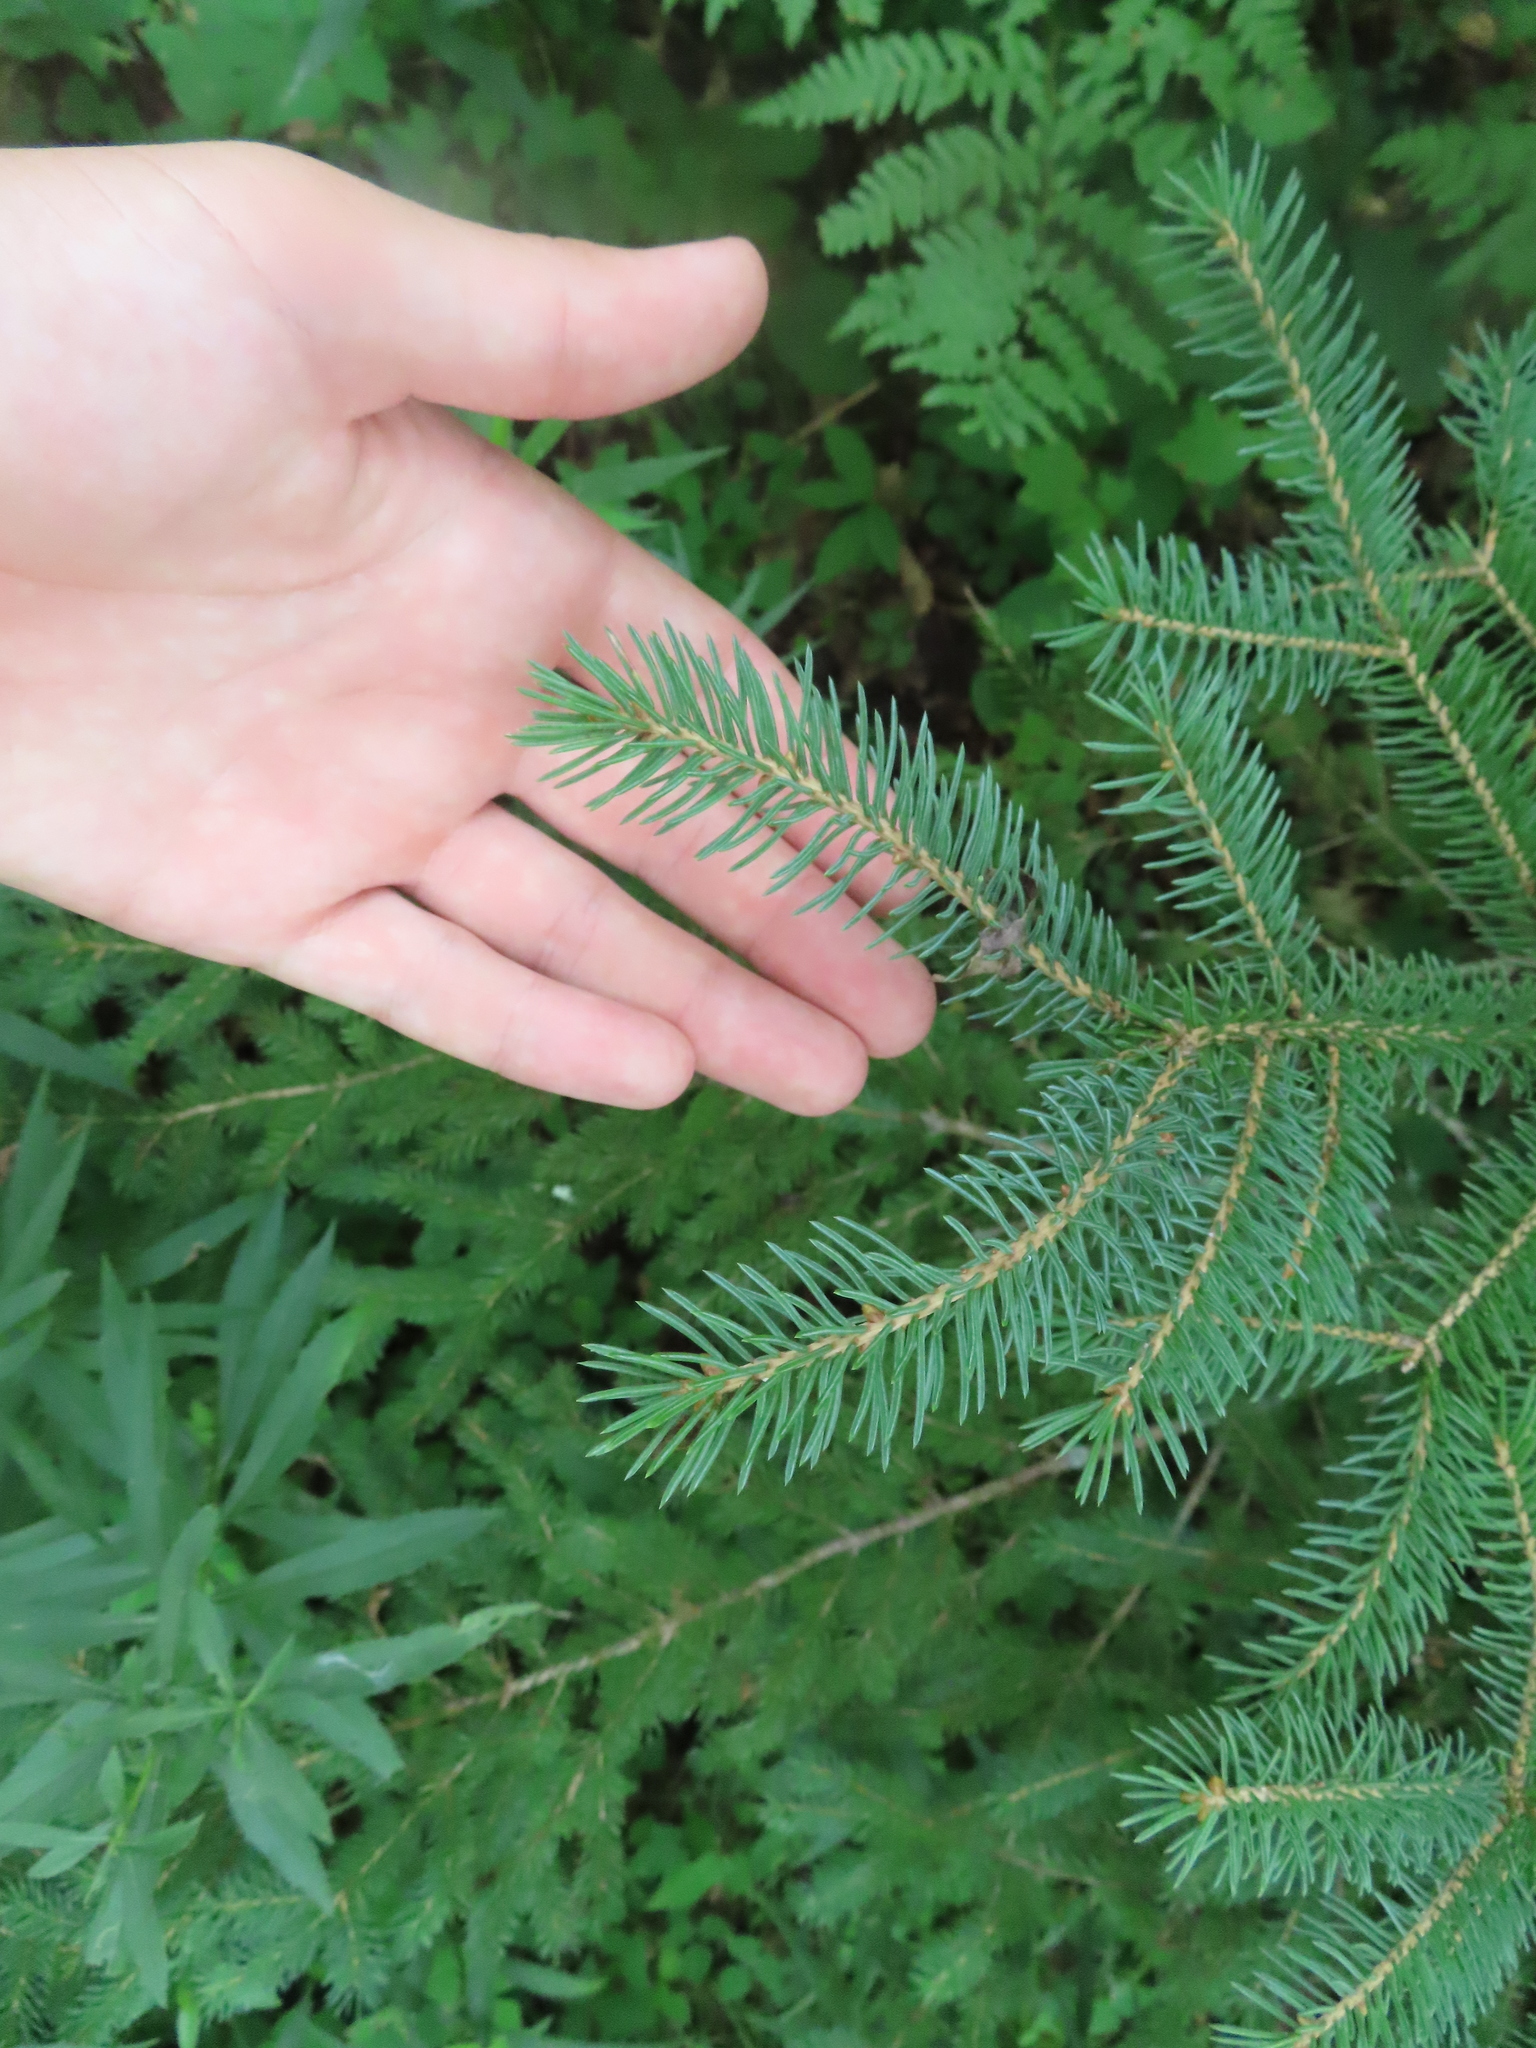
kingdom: Plantae
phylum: Tracheophyta
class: Pinopsida
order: Pinales
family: Pinaceae
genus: Picea
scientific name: Picea glauca
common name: White spruce
